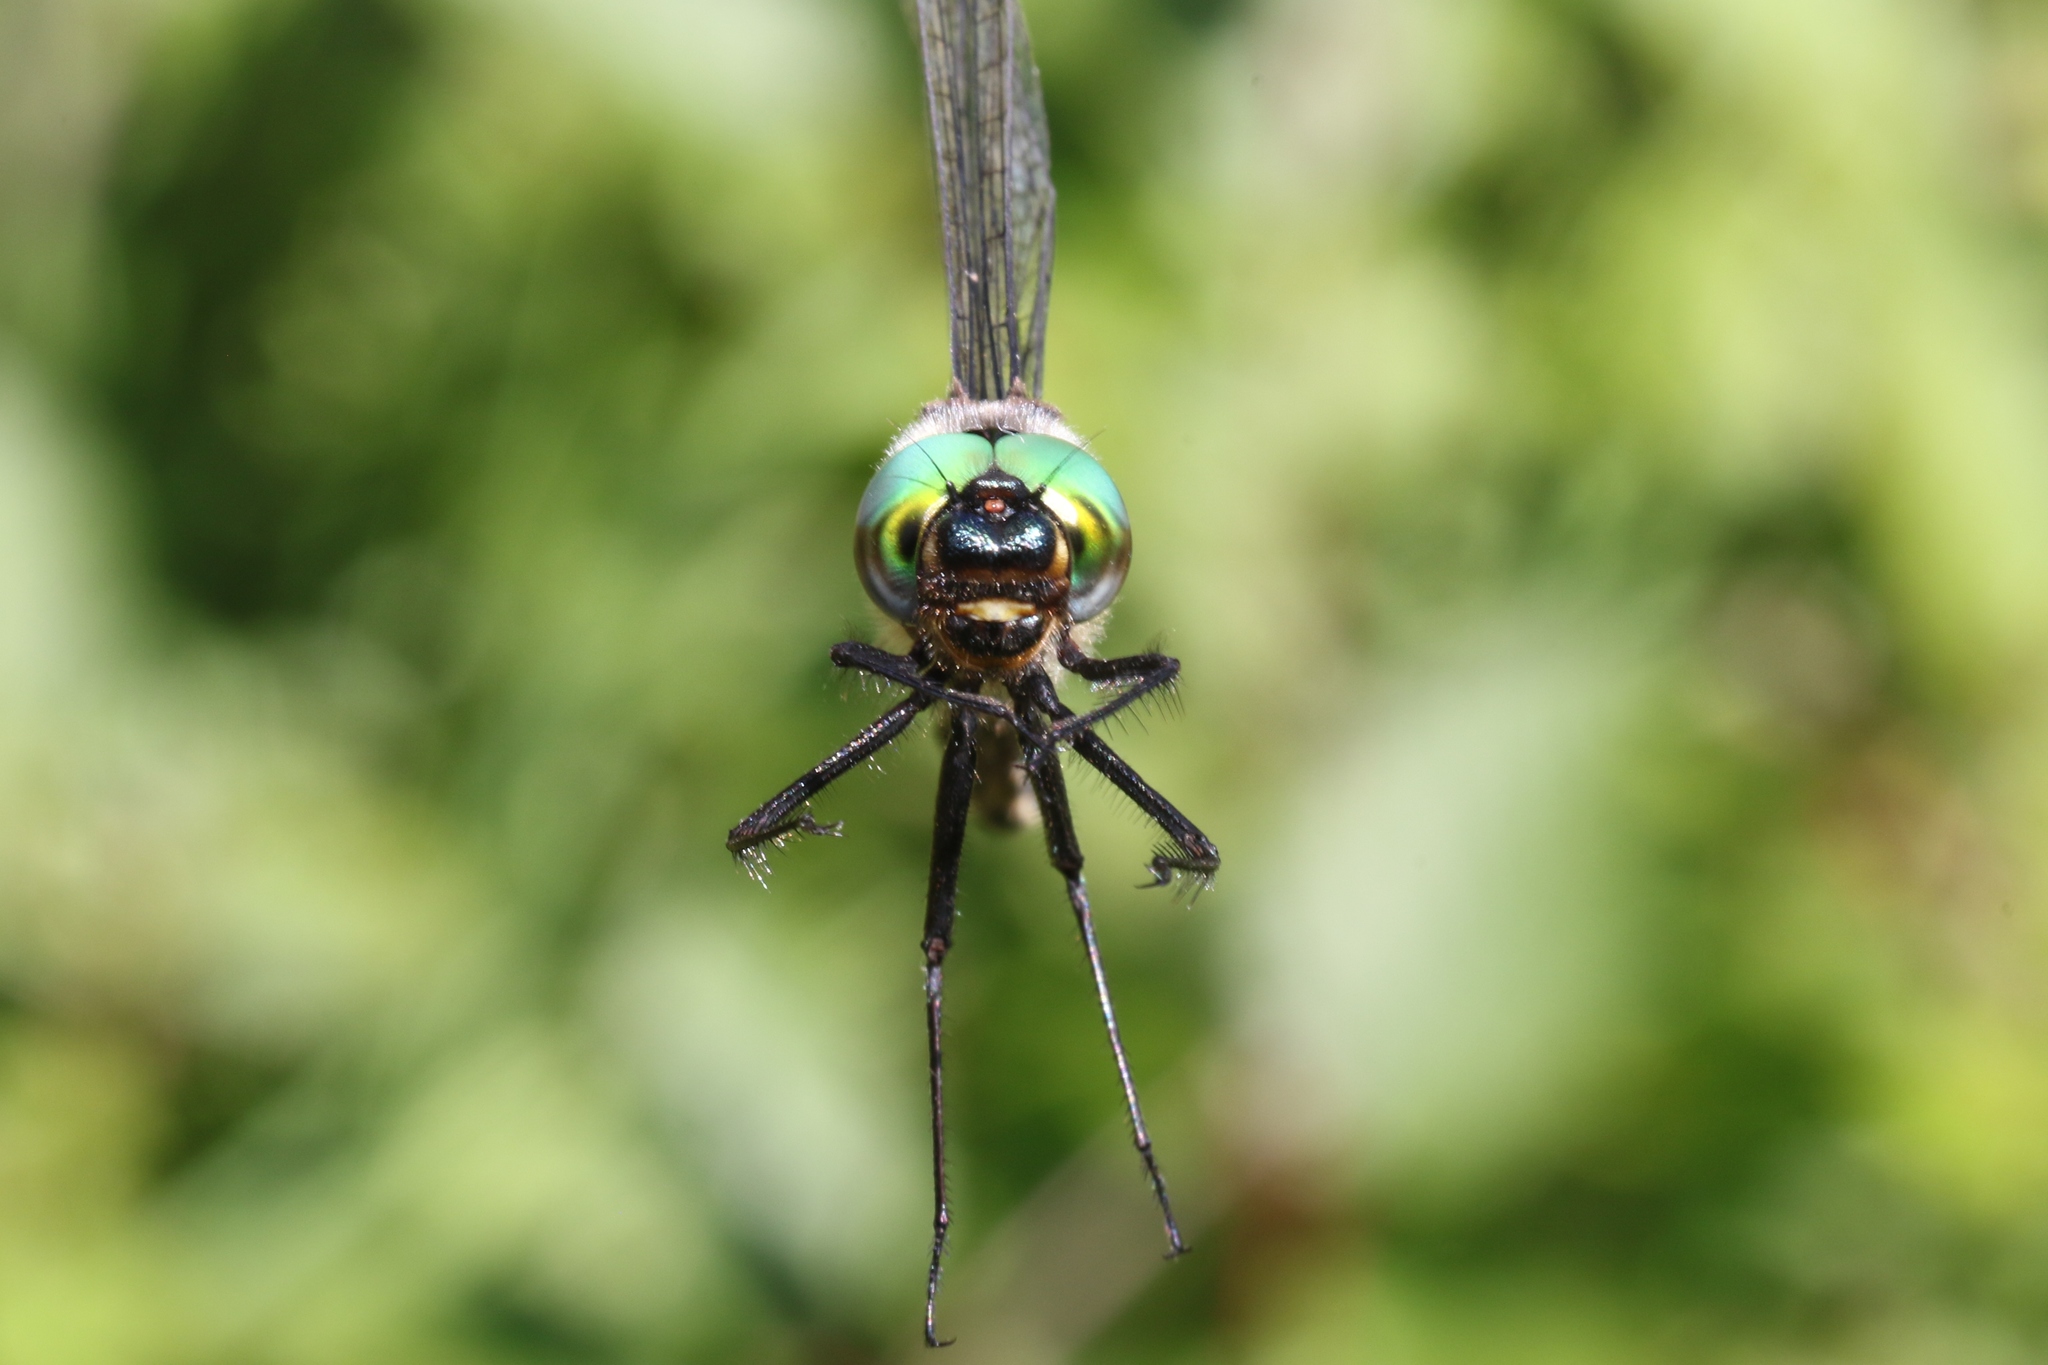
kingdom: Animalia
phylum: Arthropoda
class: Insecta
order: Odonata
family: Corduliidae
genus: Somatochlora
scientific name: Somatochlora elongata
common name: Ski-tipped emerald
